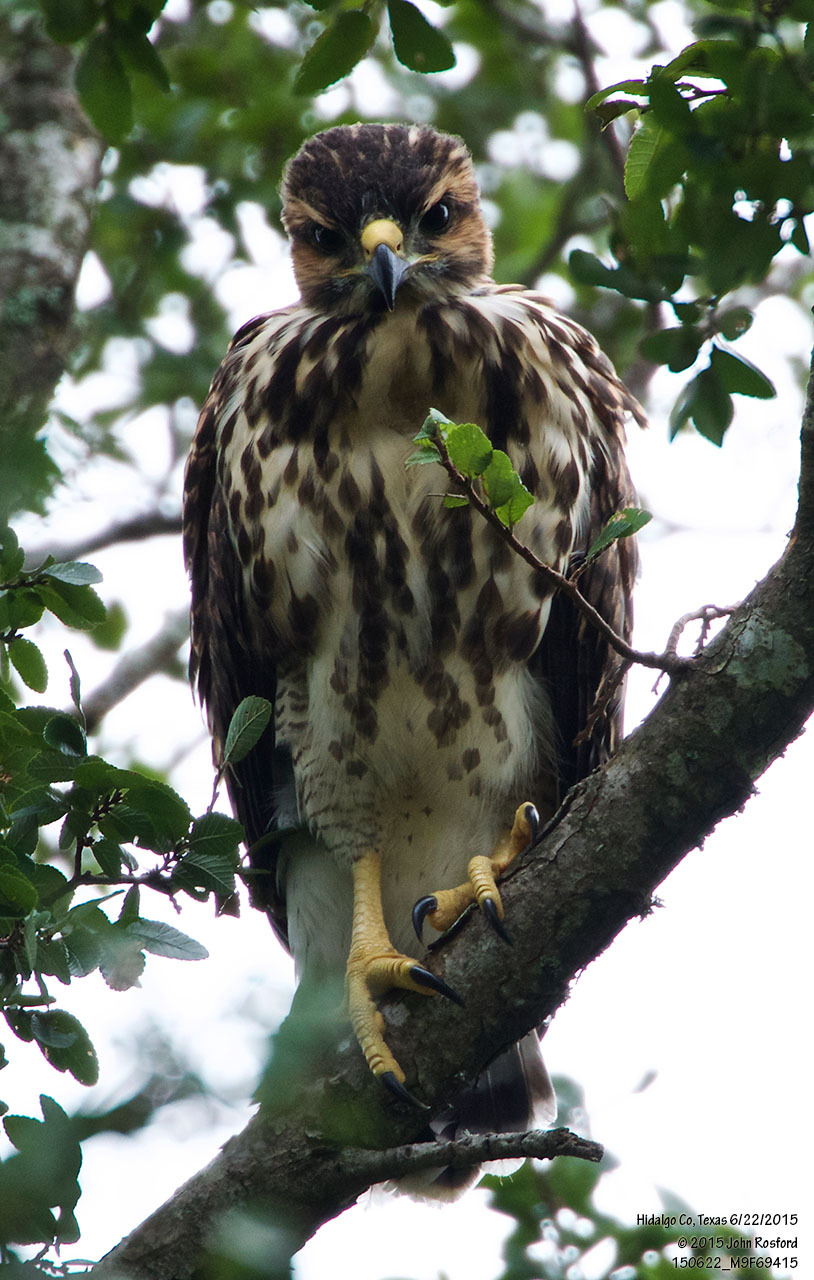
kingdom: Animalia
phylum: Chordata
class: Aves
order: Accipitriformes
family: Accipitridae
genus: Buteo
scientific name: Buteo nitidus
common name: Grey-lined hawk
